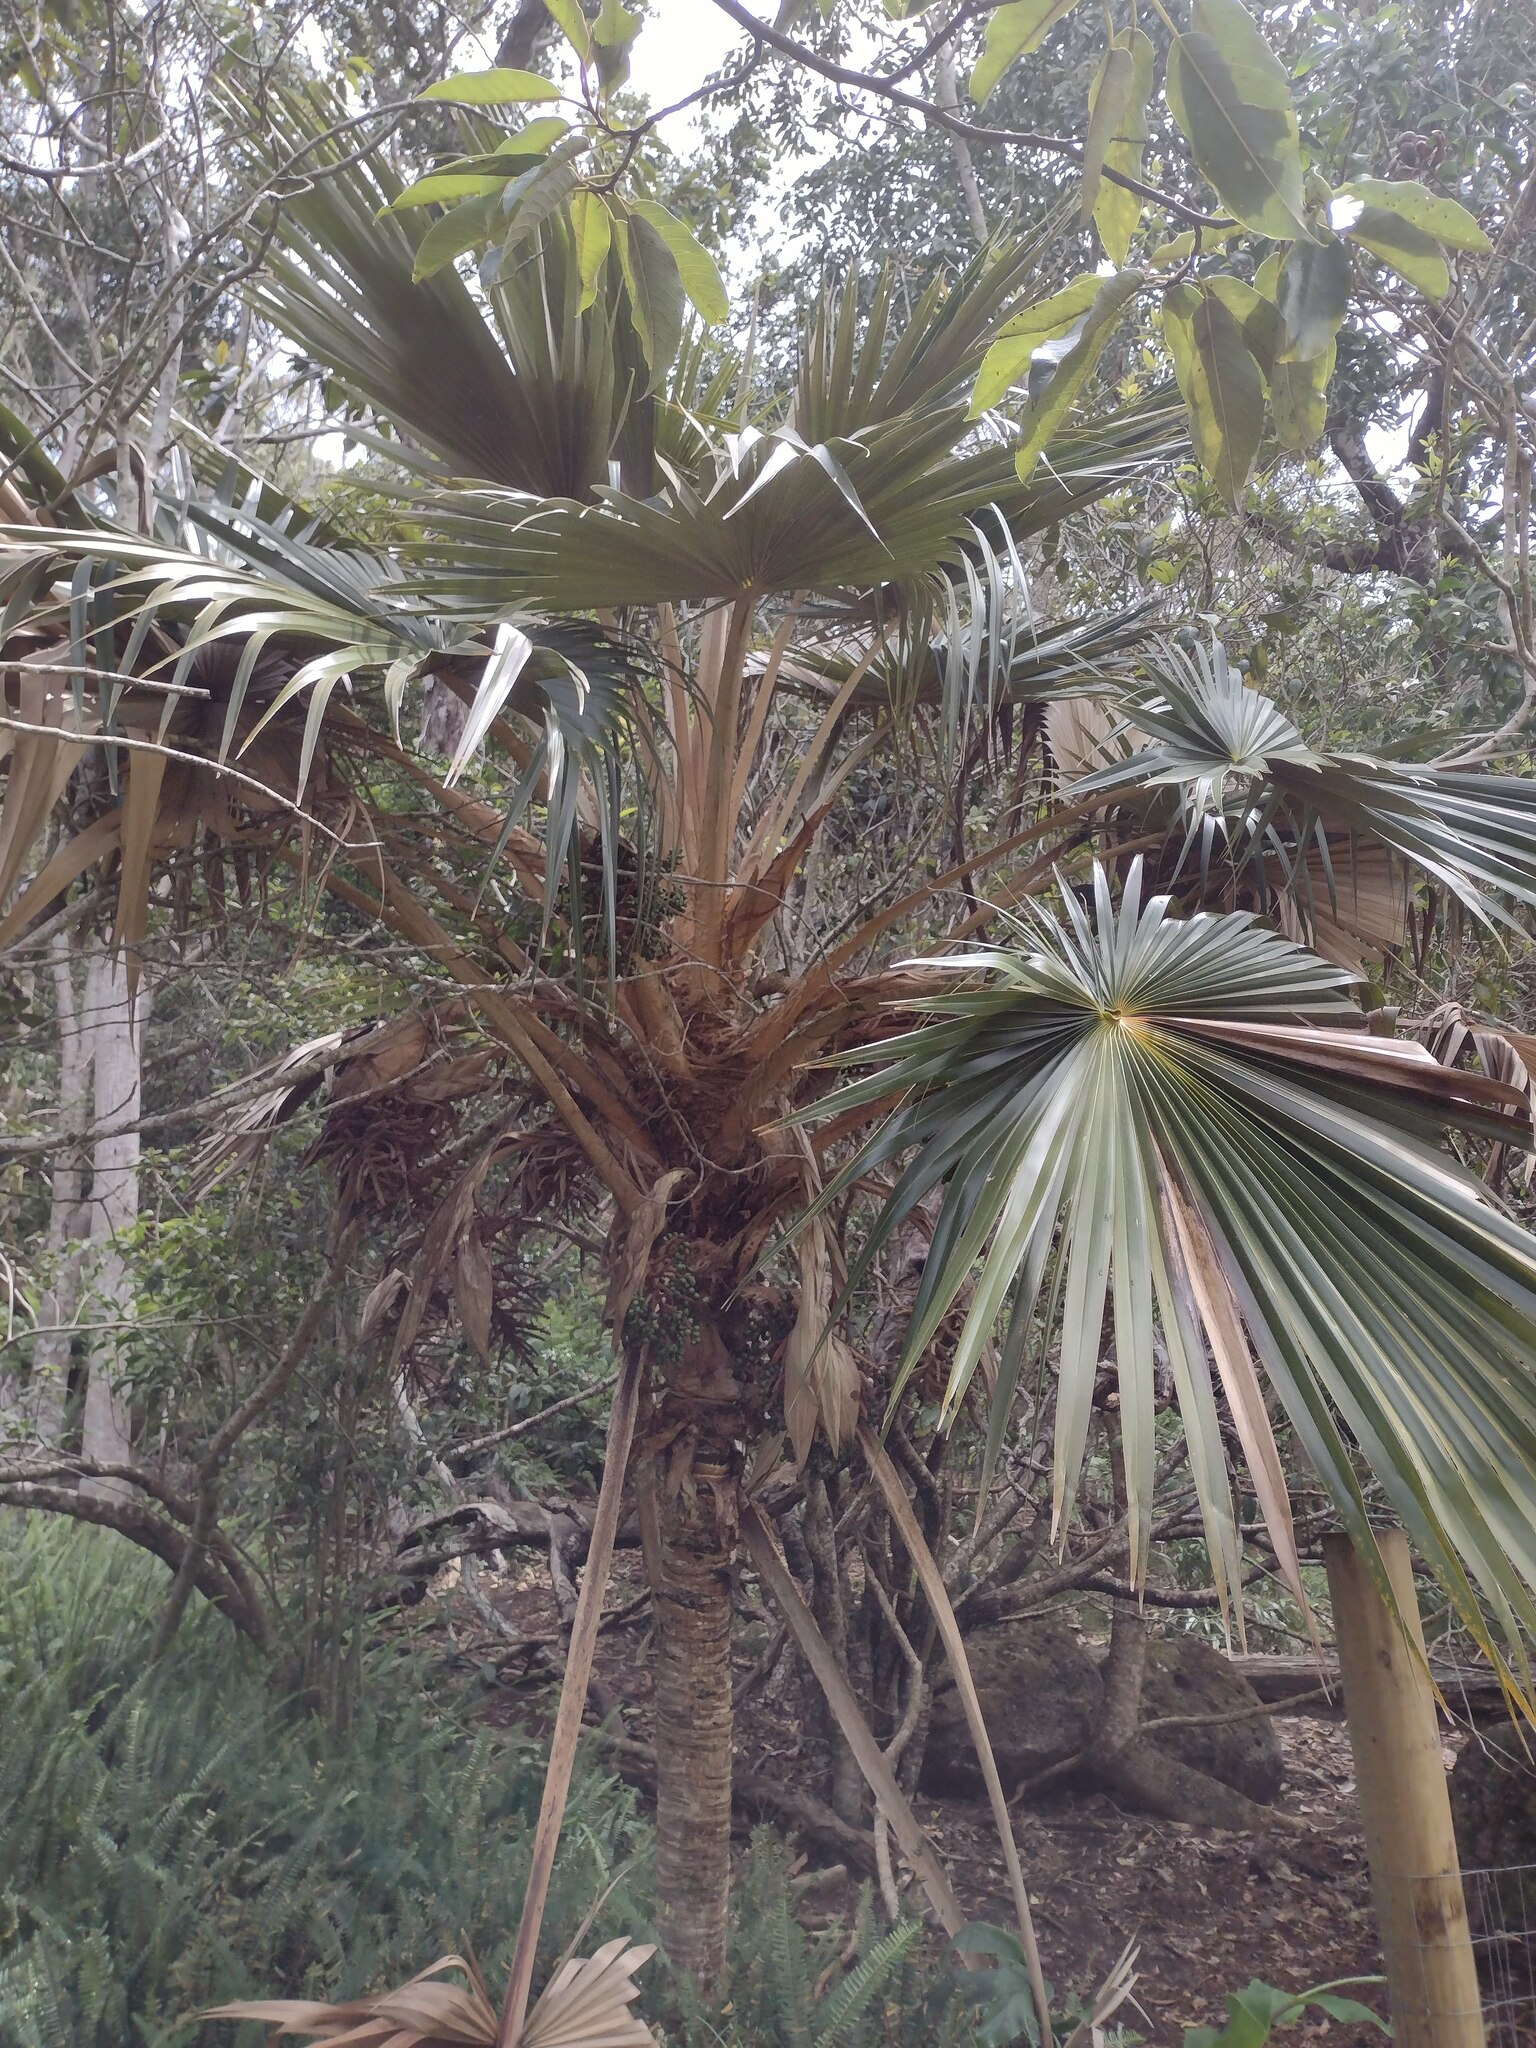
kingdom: Plantae
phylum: Tracheophyta
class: Liliopsida
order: Arecales
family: Arecaceae
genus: Pritchardia
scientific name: Pritchardia minor
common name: Alakai swamp pritchardia
